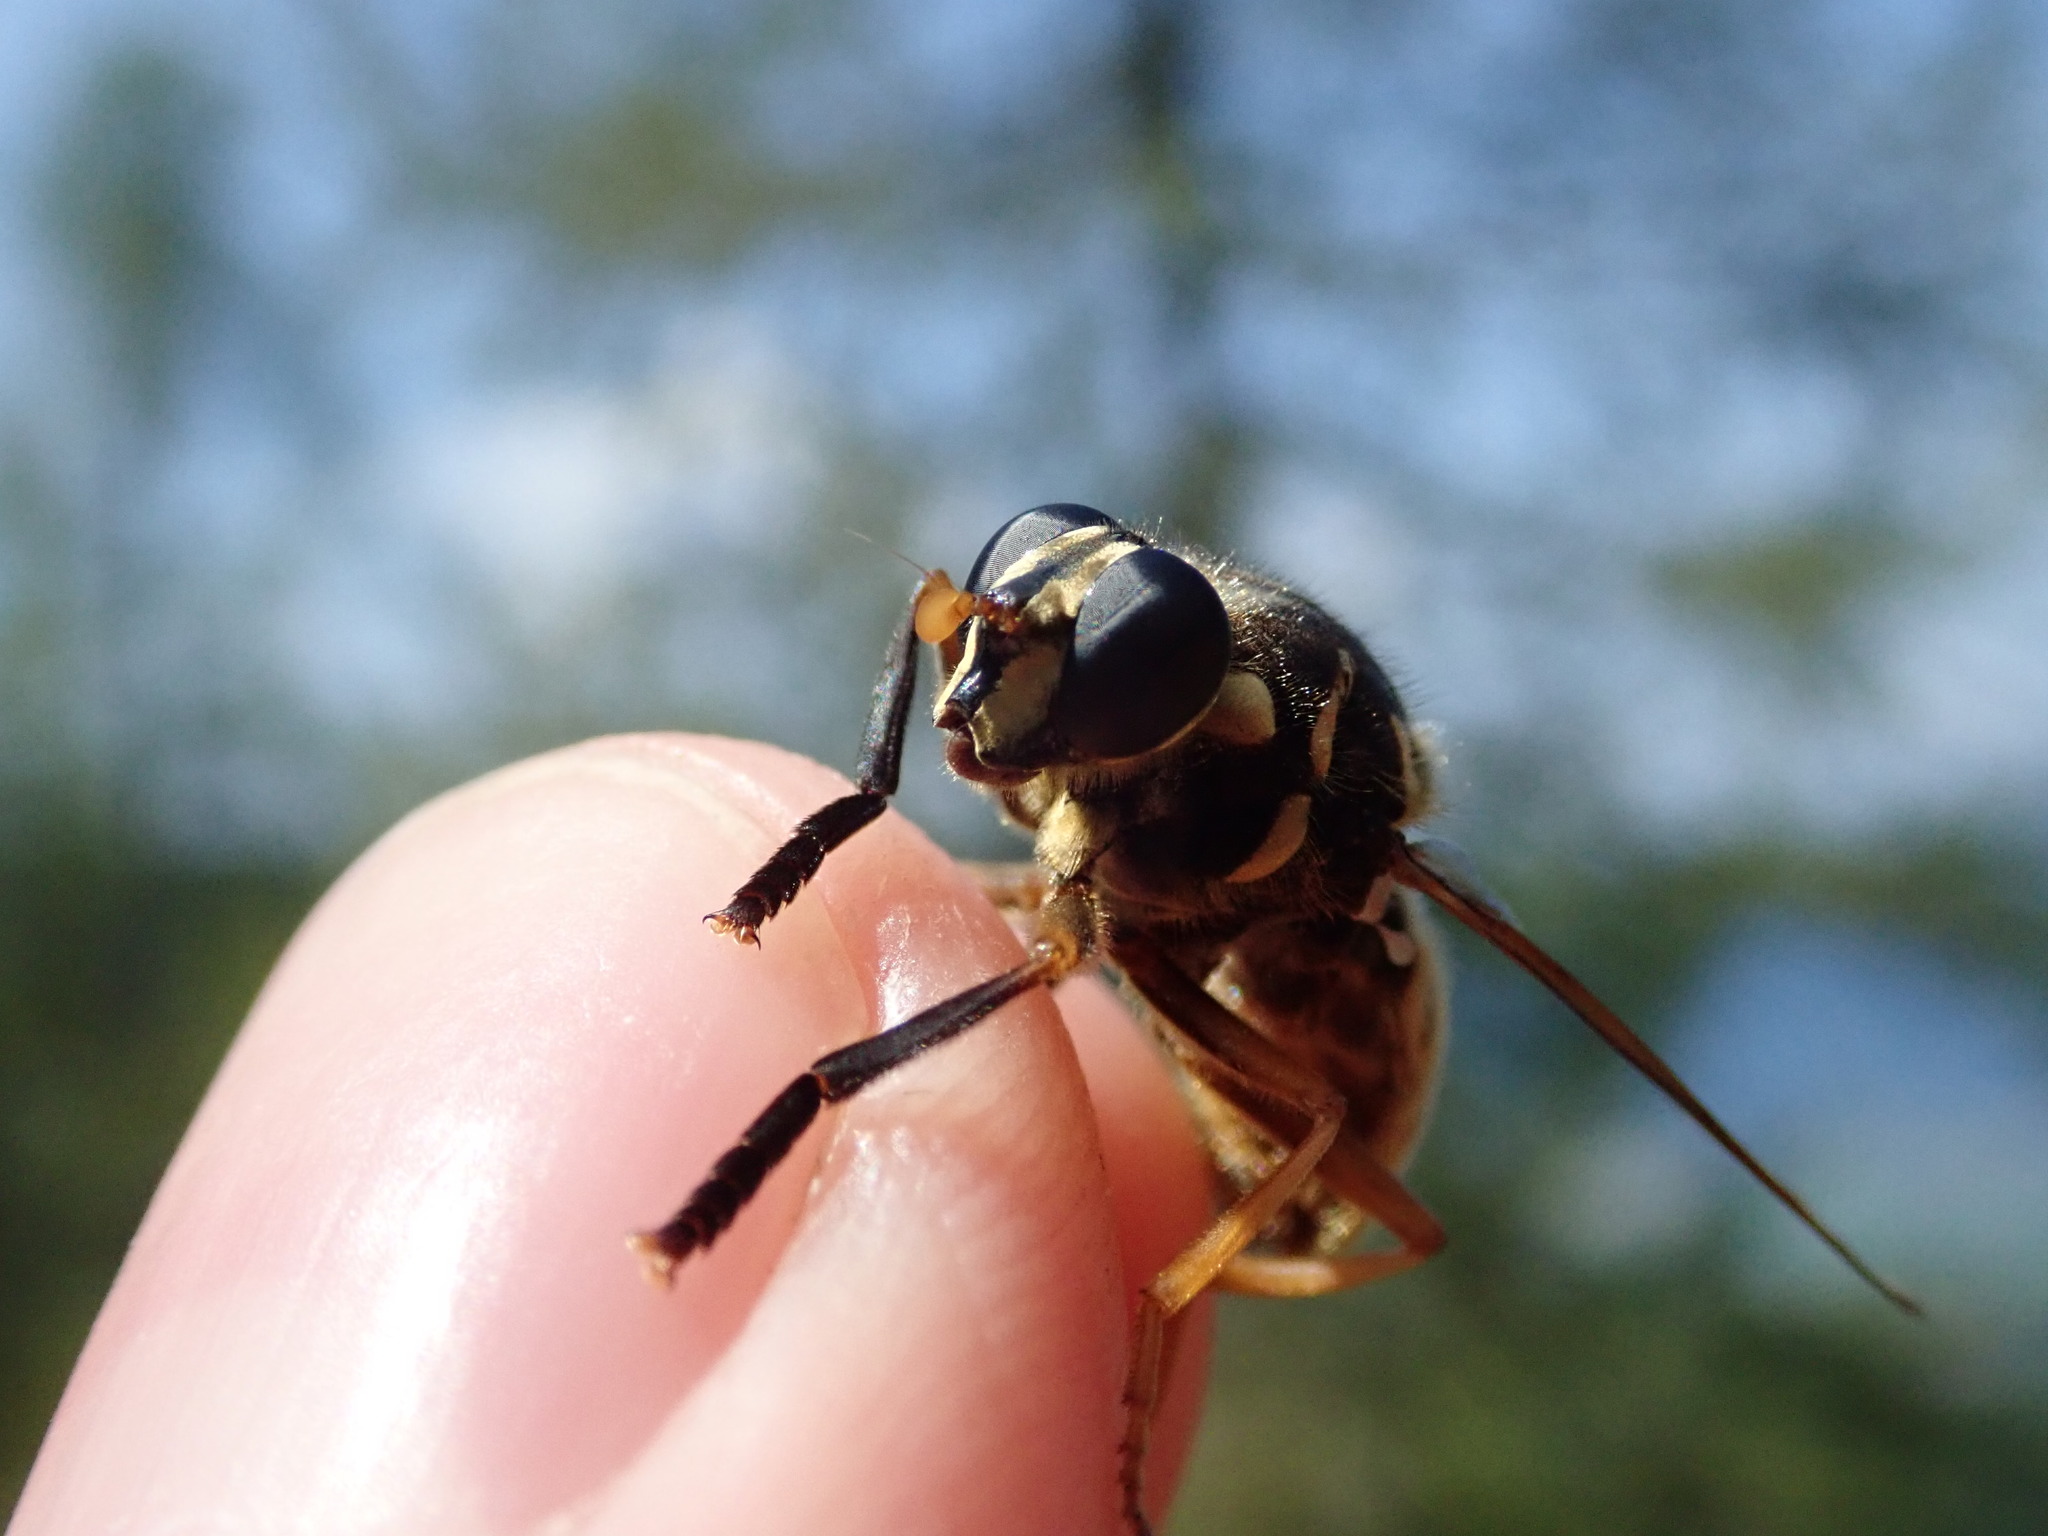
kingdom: Animalia
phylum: Arthropoda
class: Insecta
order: Diptera
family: Syrphidae
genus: Temnostoma
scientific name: Temnostoma vespiforme
